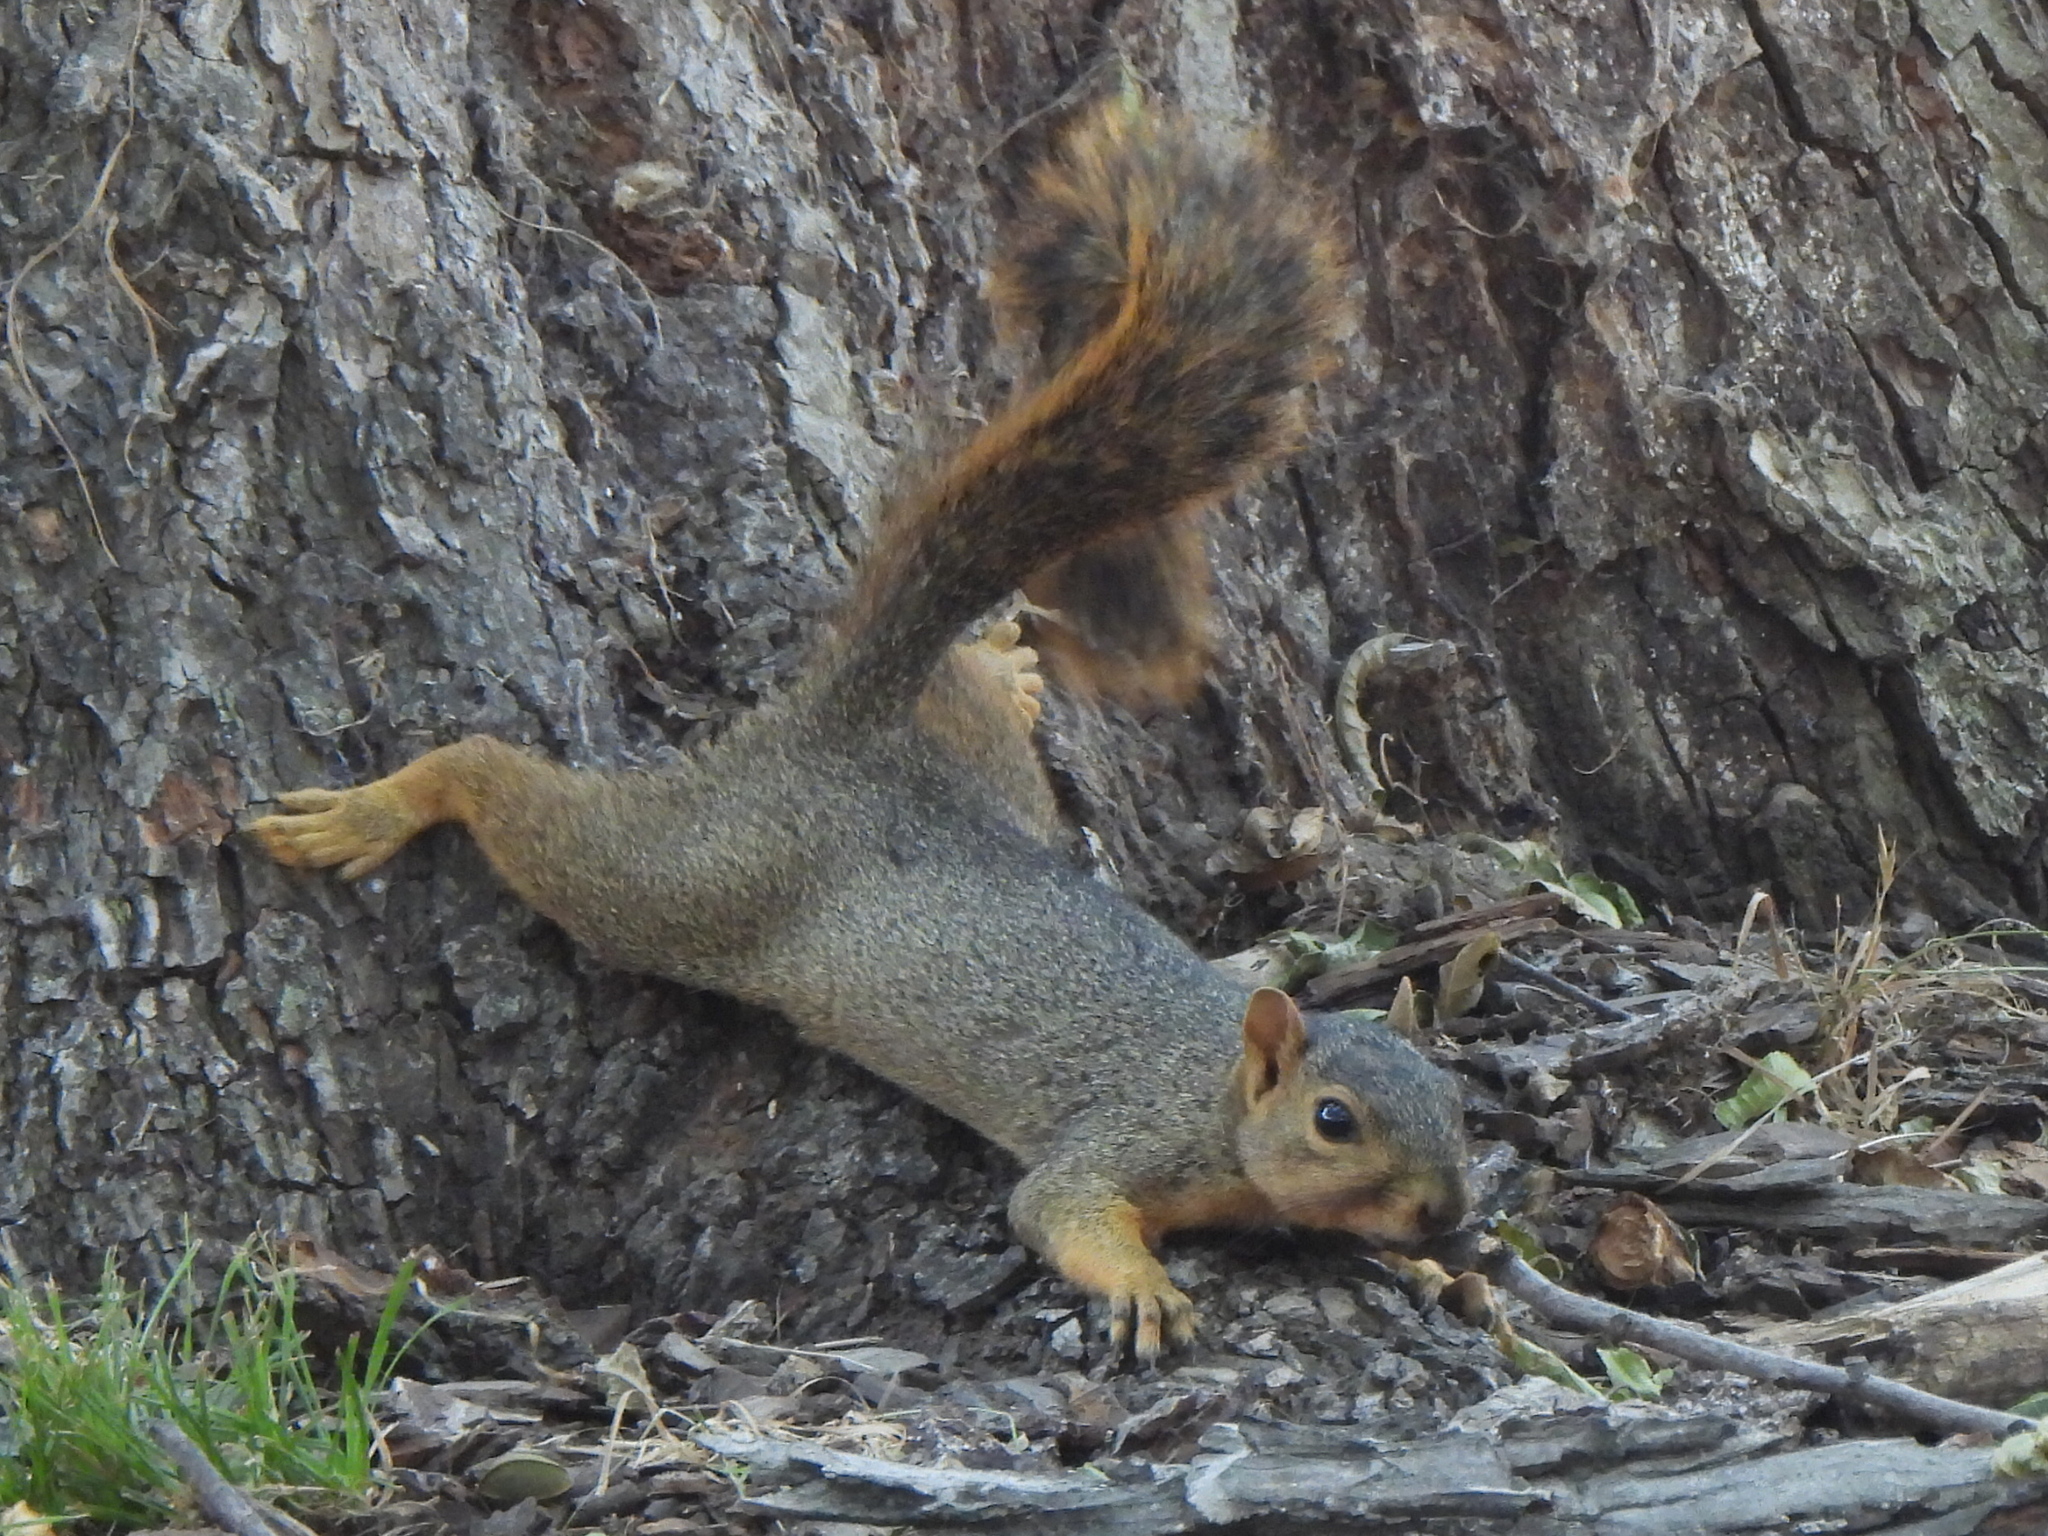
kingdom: Animalia
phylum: Chordata
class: Mammalia
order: Rodentia
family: Sciuridae
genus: Sciurus
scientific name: Sciurus niger
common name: Fox squirrel
